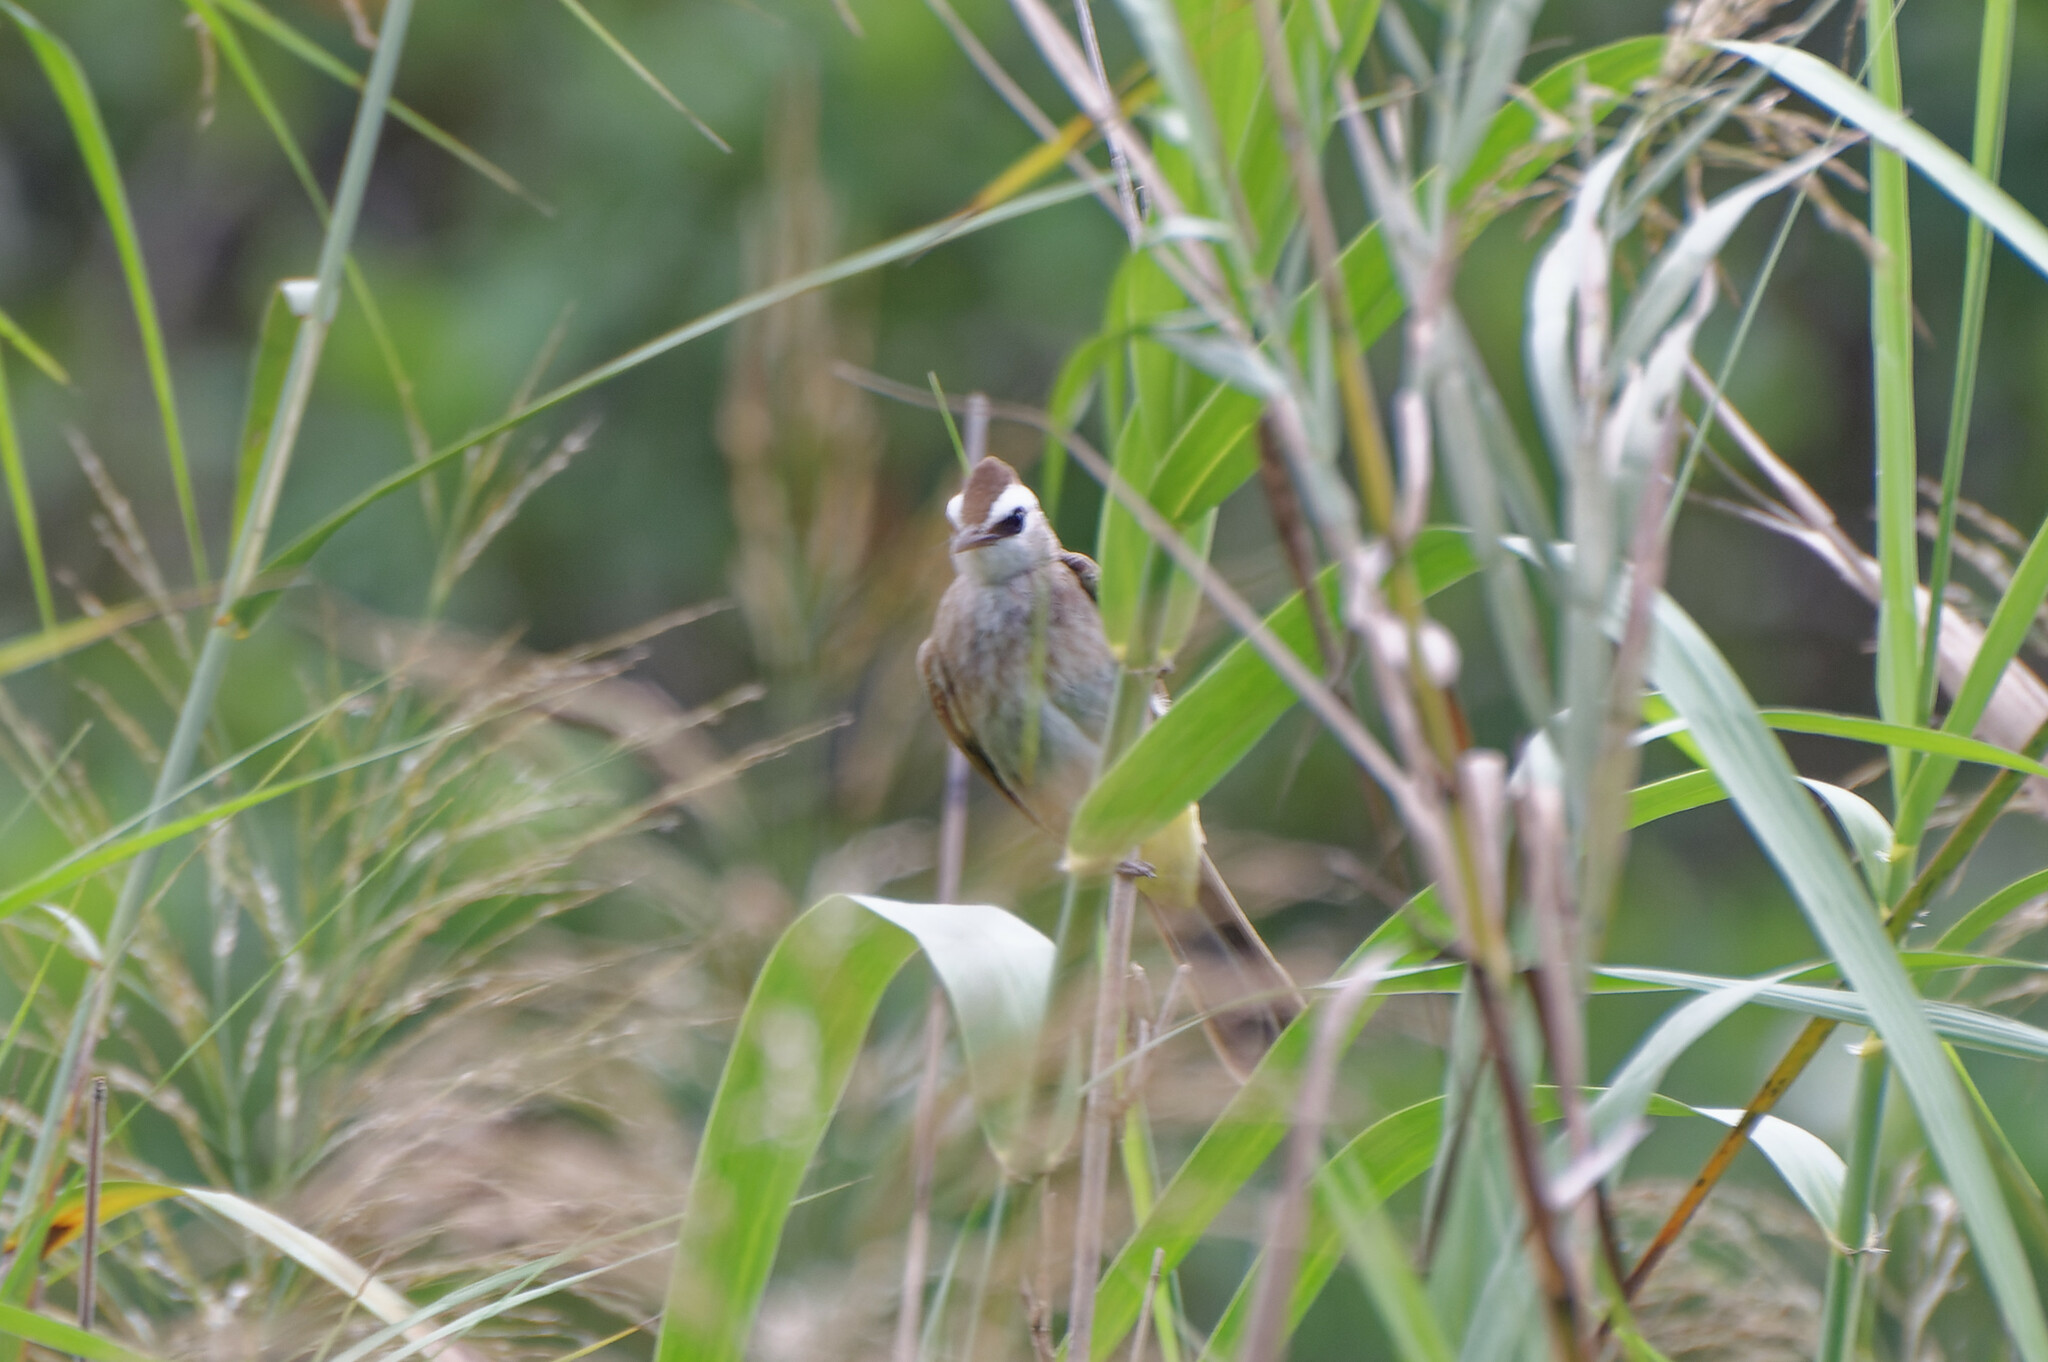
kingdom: Animalia
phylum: Chordata
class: Aves
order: Passeriformes
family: Pycnonotidae
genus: Pycnonotus
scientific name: Pycnonotus goiavier
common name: Yellow-vented bulbul
